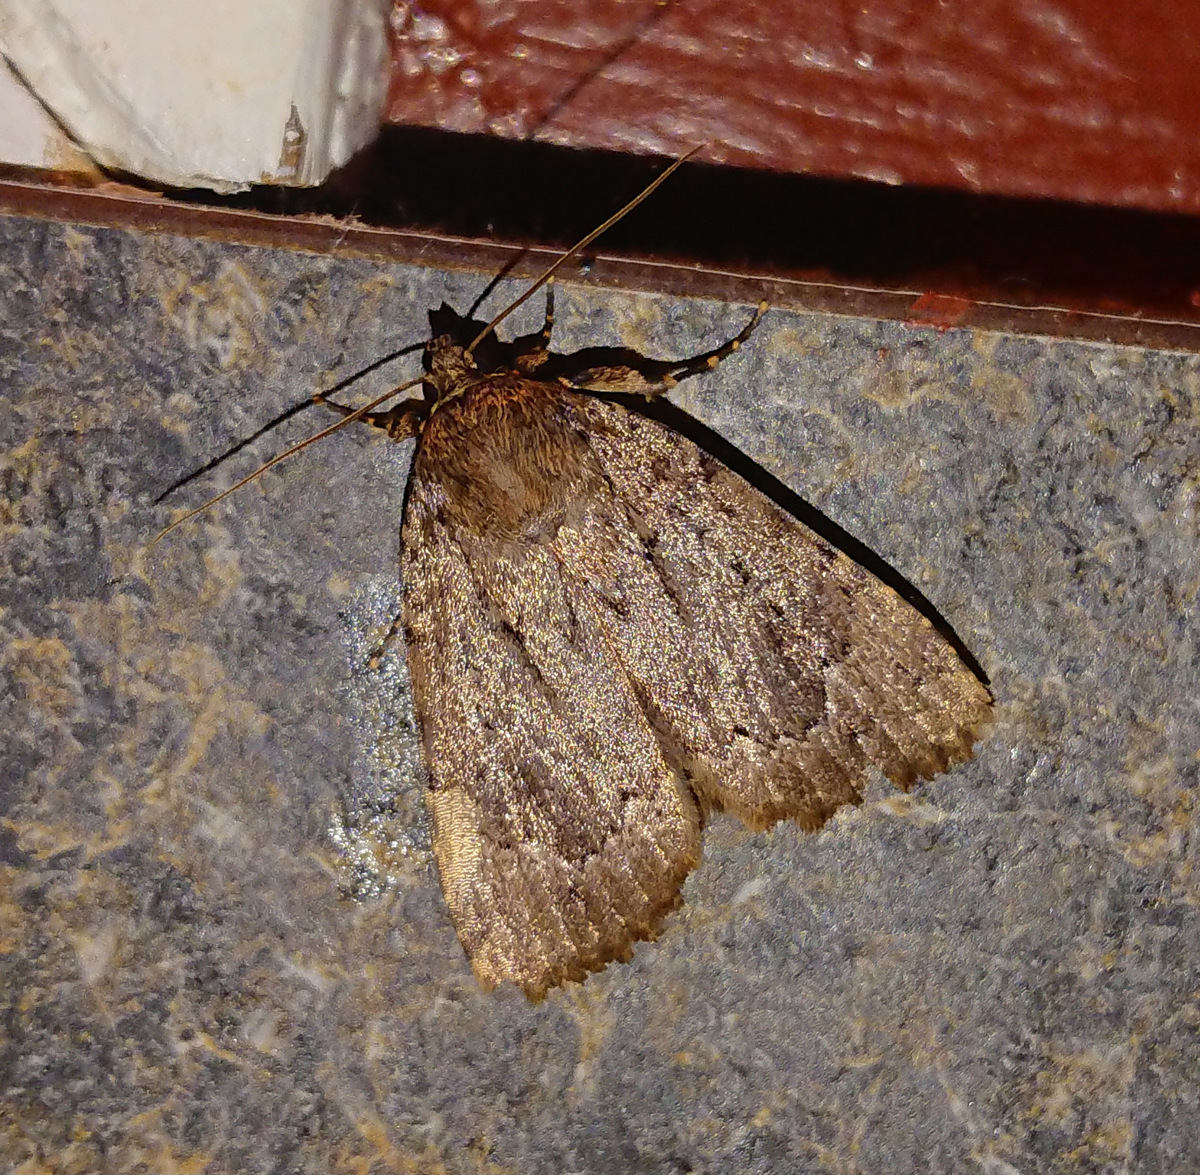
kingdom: Animalia
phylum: Arthropoda
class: Insecta
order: Lepidoptera
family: Noctuidae
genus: Amphipyra
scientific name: Amphipyra pyramidoides
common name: American copper underwing
